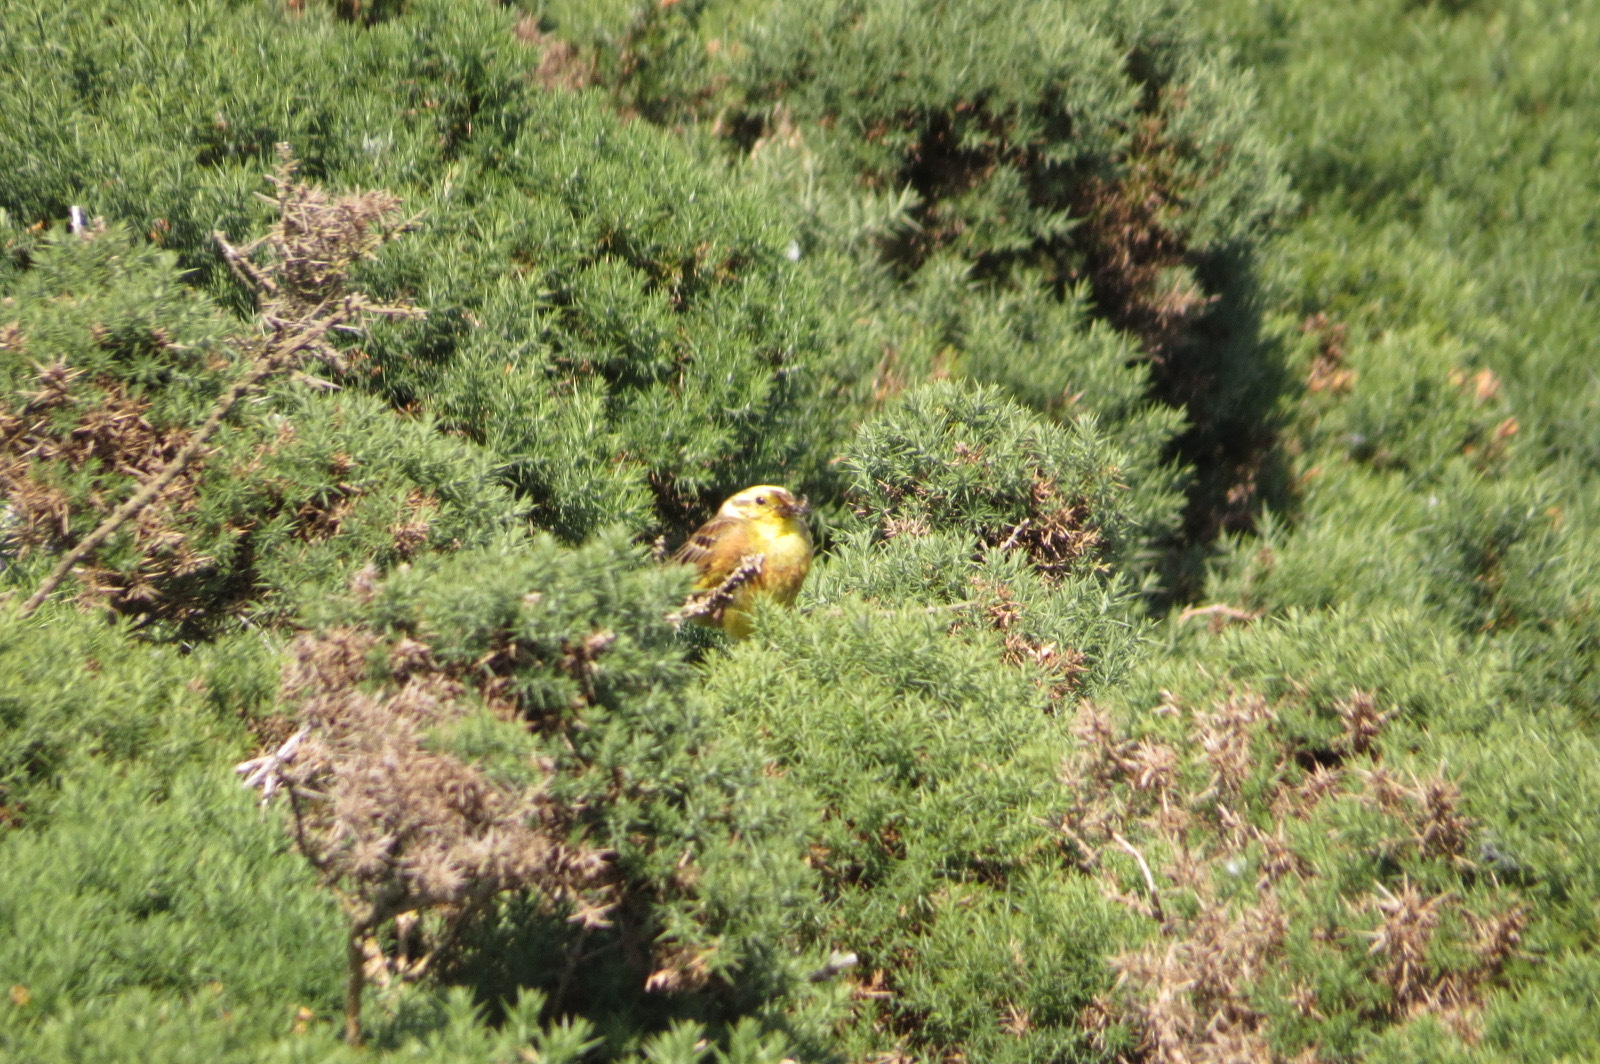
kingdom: Animalia
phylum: Chordata
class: Aves
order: Passeriformes
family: Emberizidae
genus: Emberiza
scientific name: Emberiza citrinella
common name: Yellowhammer
